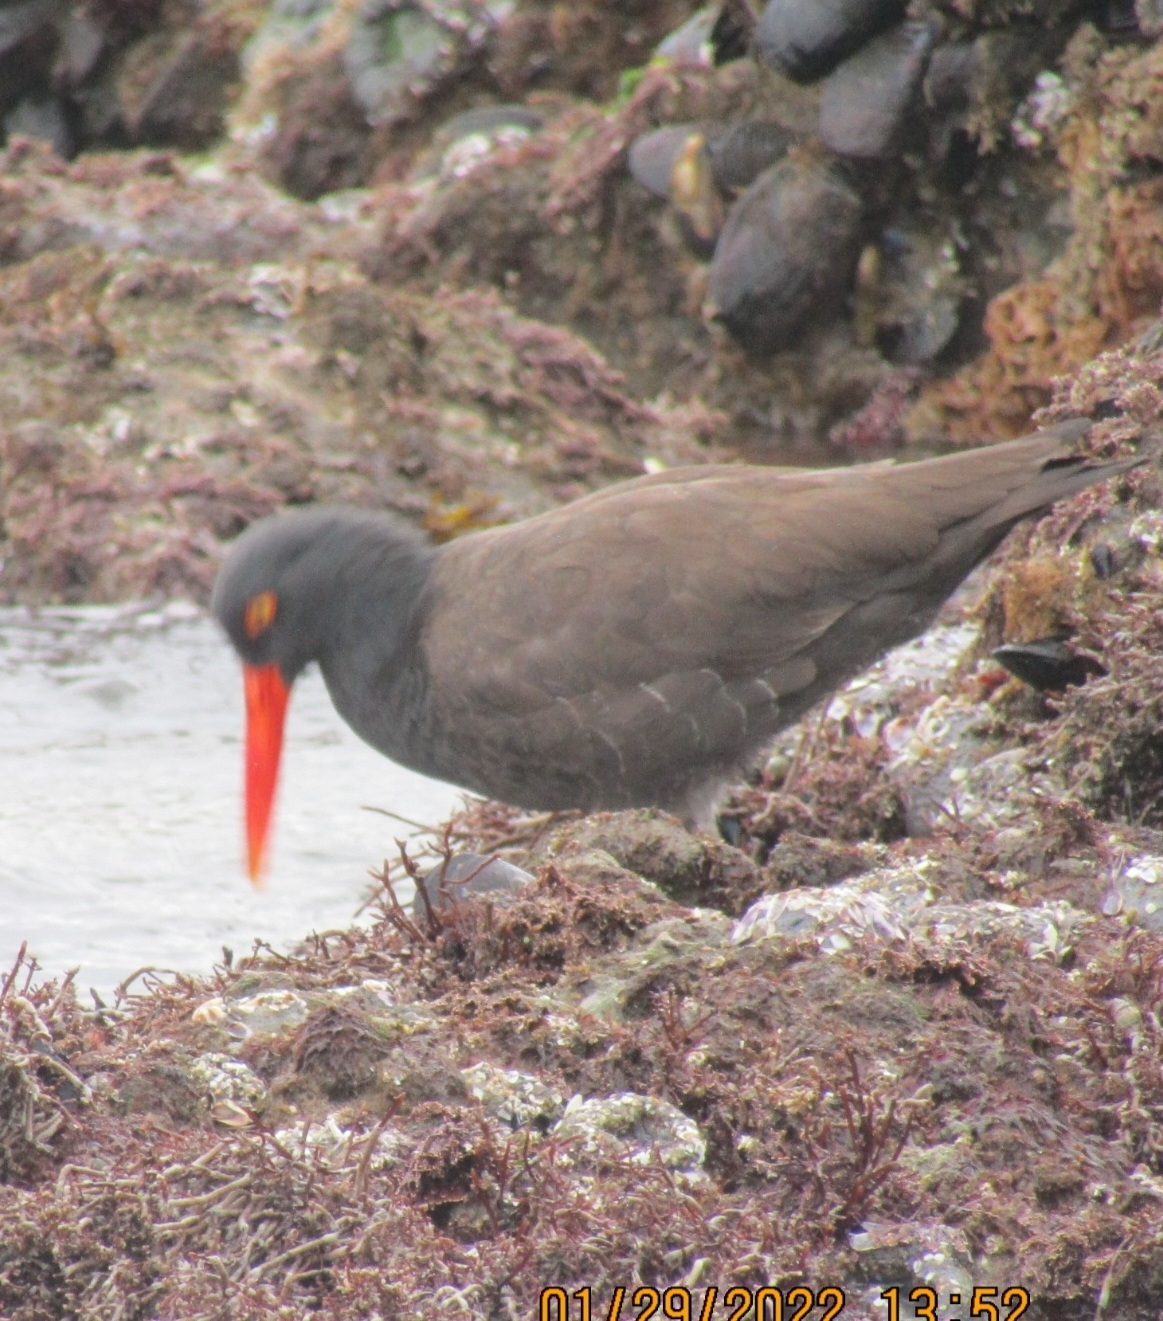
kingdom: Animalia
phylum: Chordata
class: Aves
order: Charadriiformes
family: Haematopodidae
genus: Haematopus
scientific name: Haematopus bachmani
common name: Black oystercatcher
